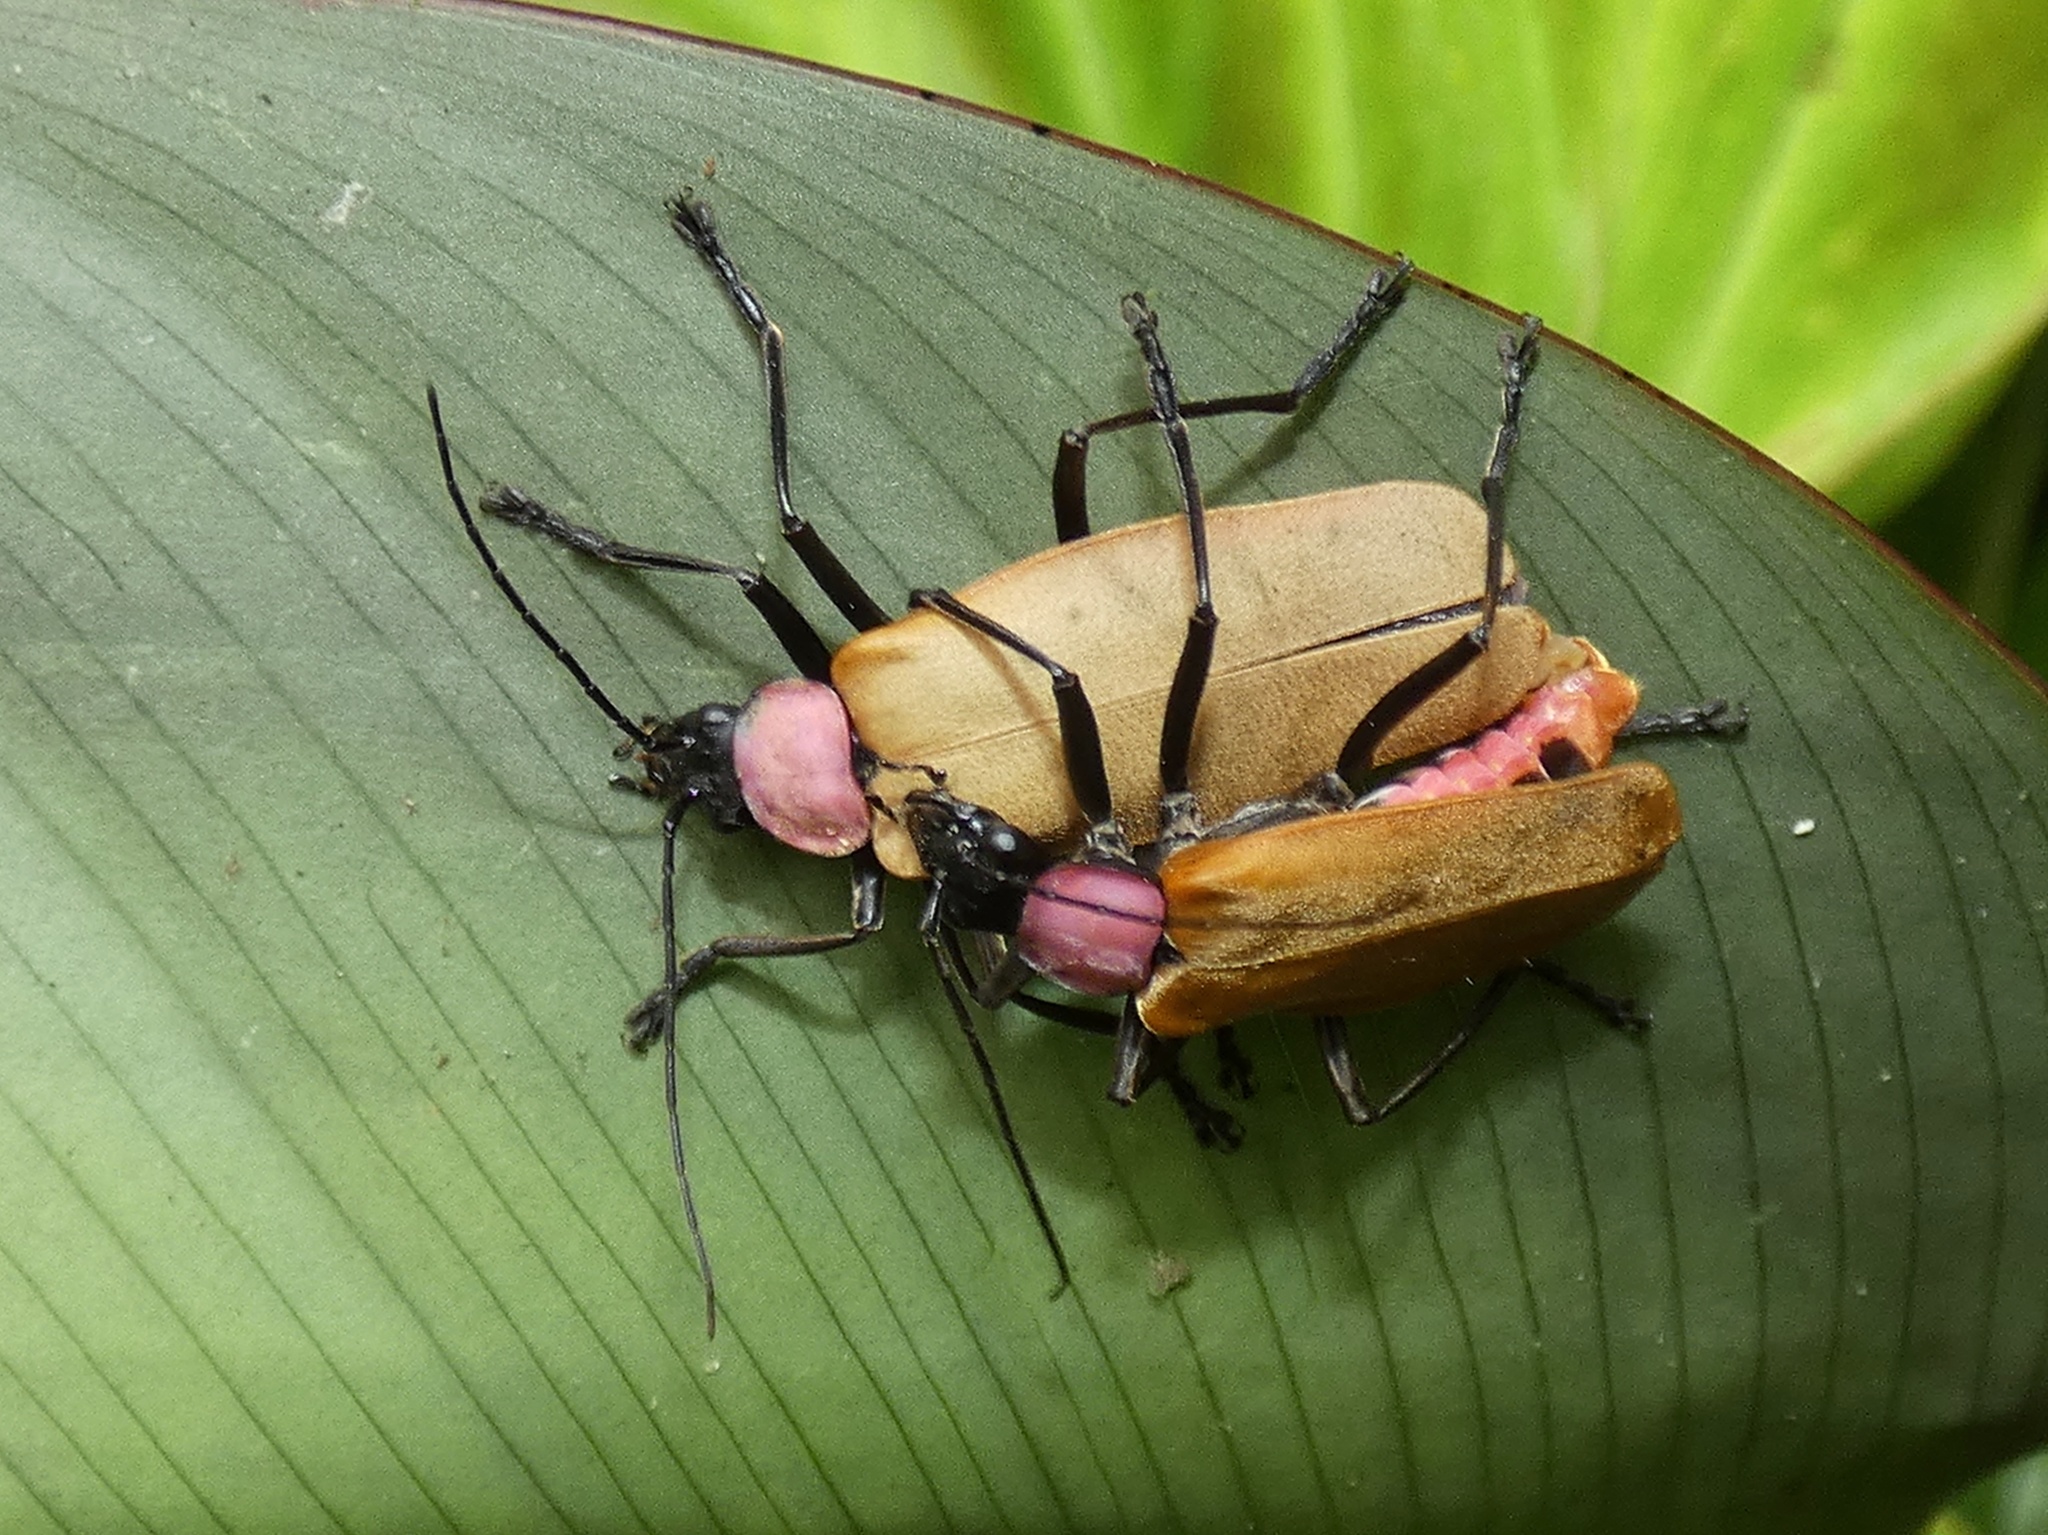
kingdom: Animalia
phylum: Arthropoda
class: Insecta
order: Coleoptera
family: Cantharidae
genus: Chauliognathus
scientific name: Chauliognathus
